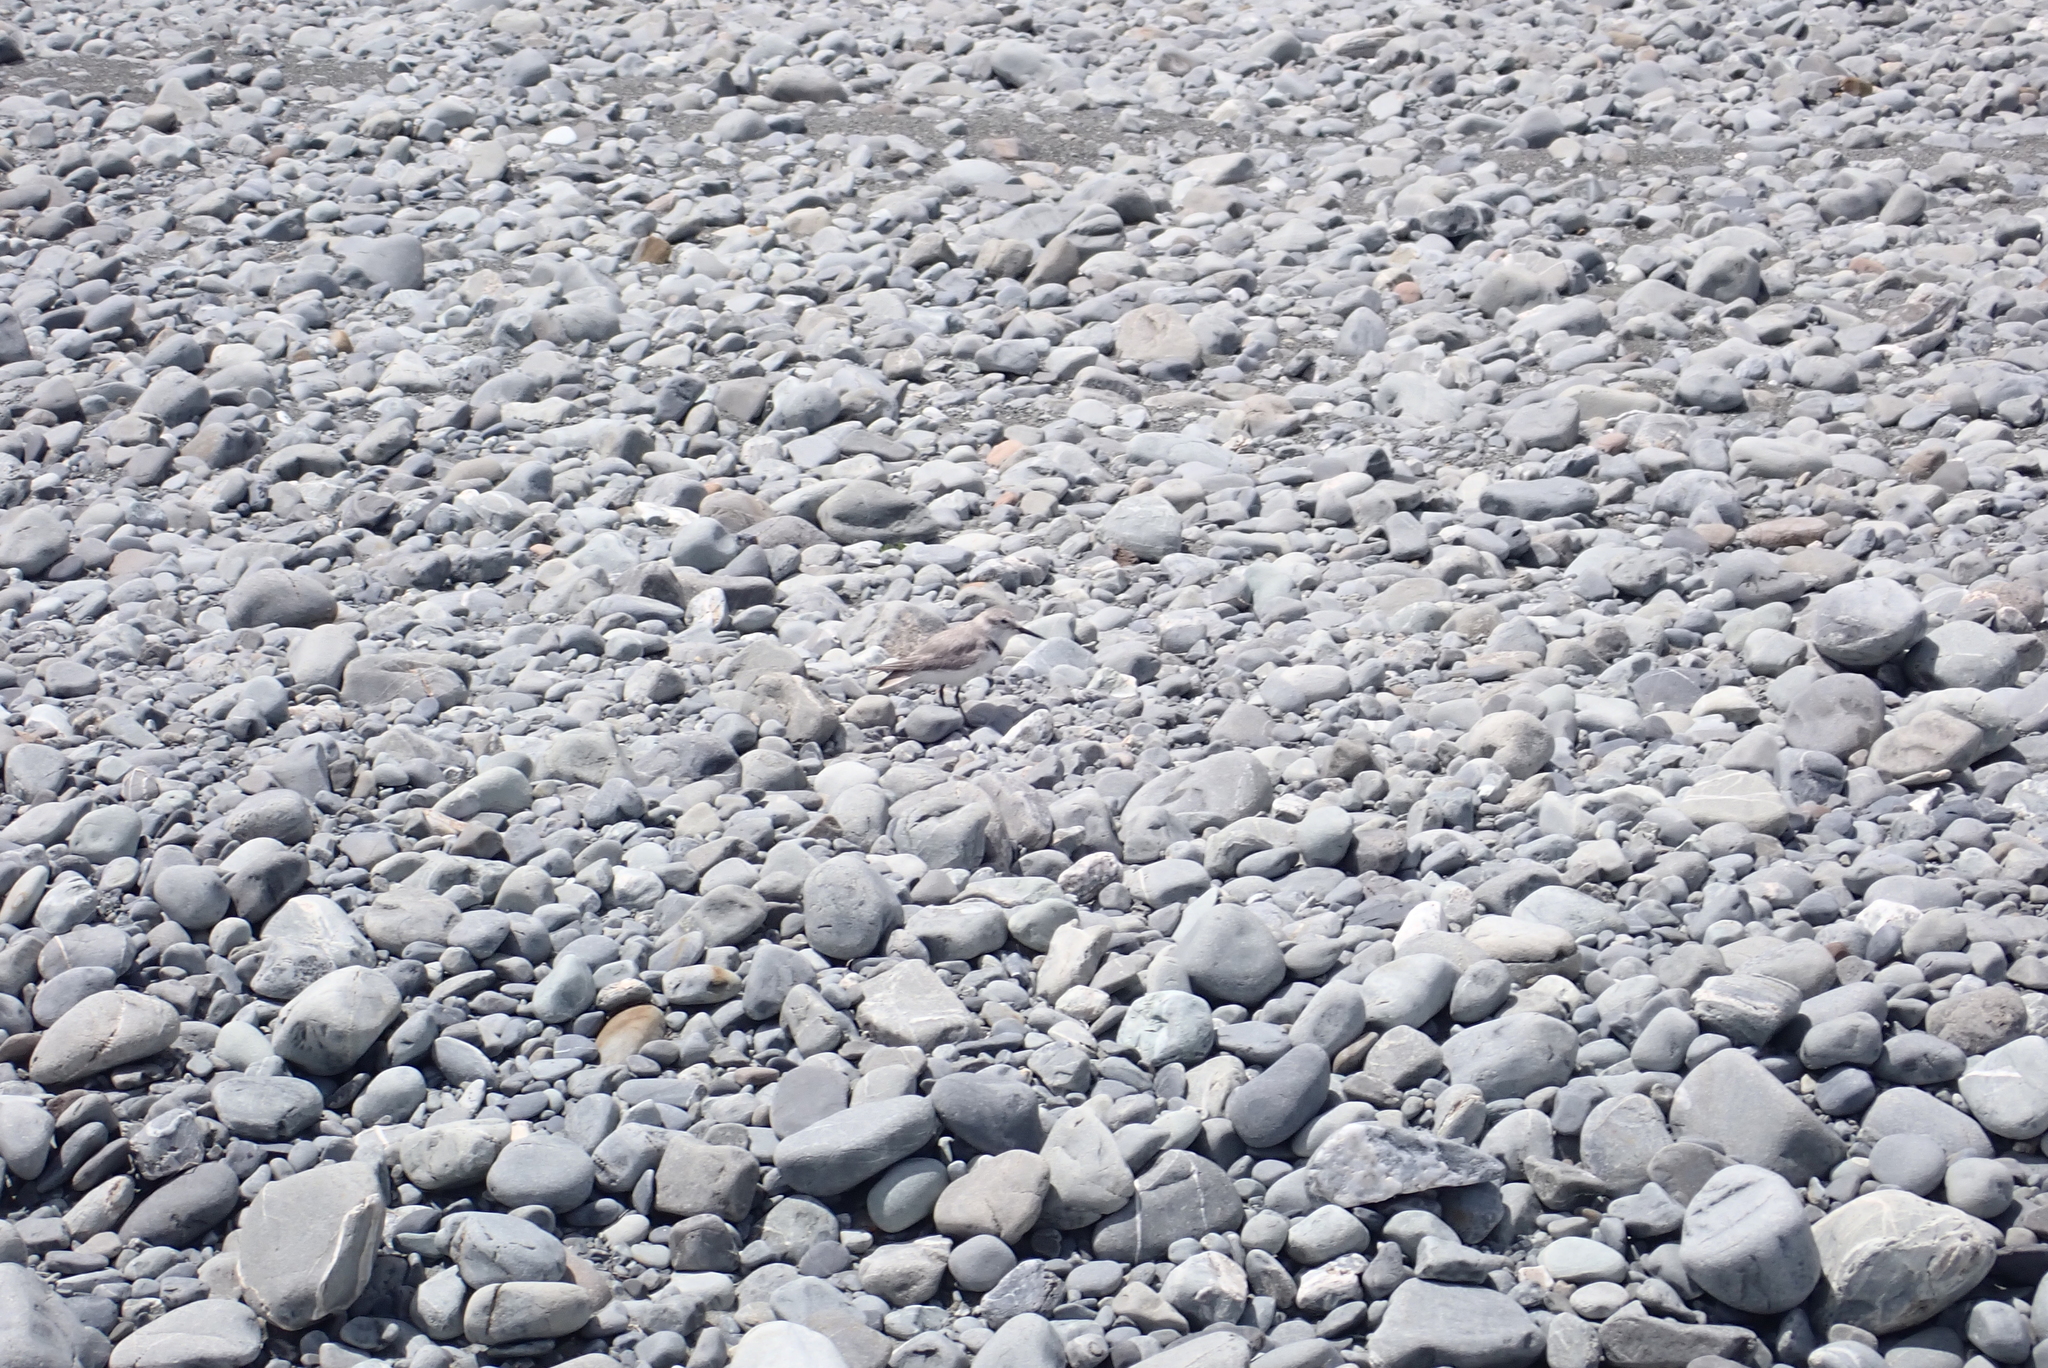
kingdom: Animalia
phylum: Chordata
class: Aves
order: Charadriiformes
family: Charadriidae
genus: Anarhynchus
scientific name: Anarhynchus frontalis
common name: Wrybill
